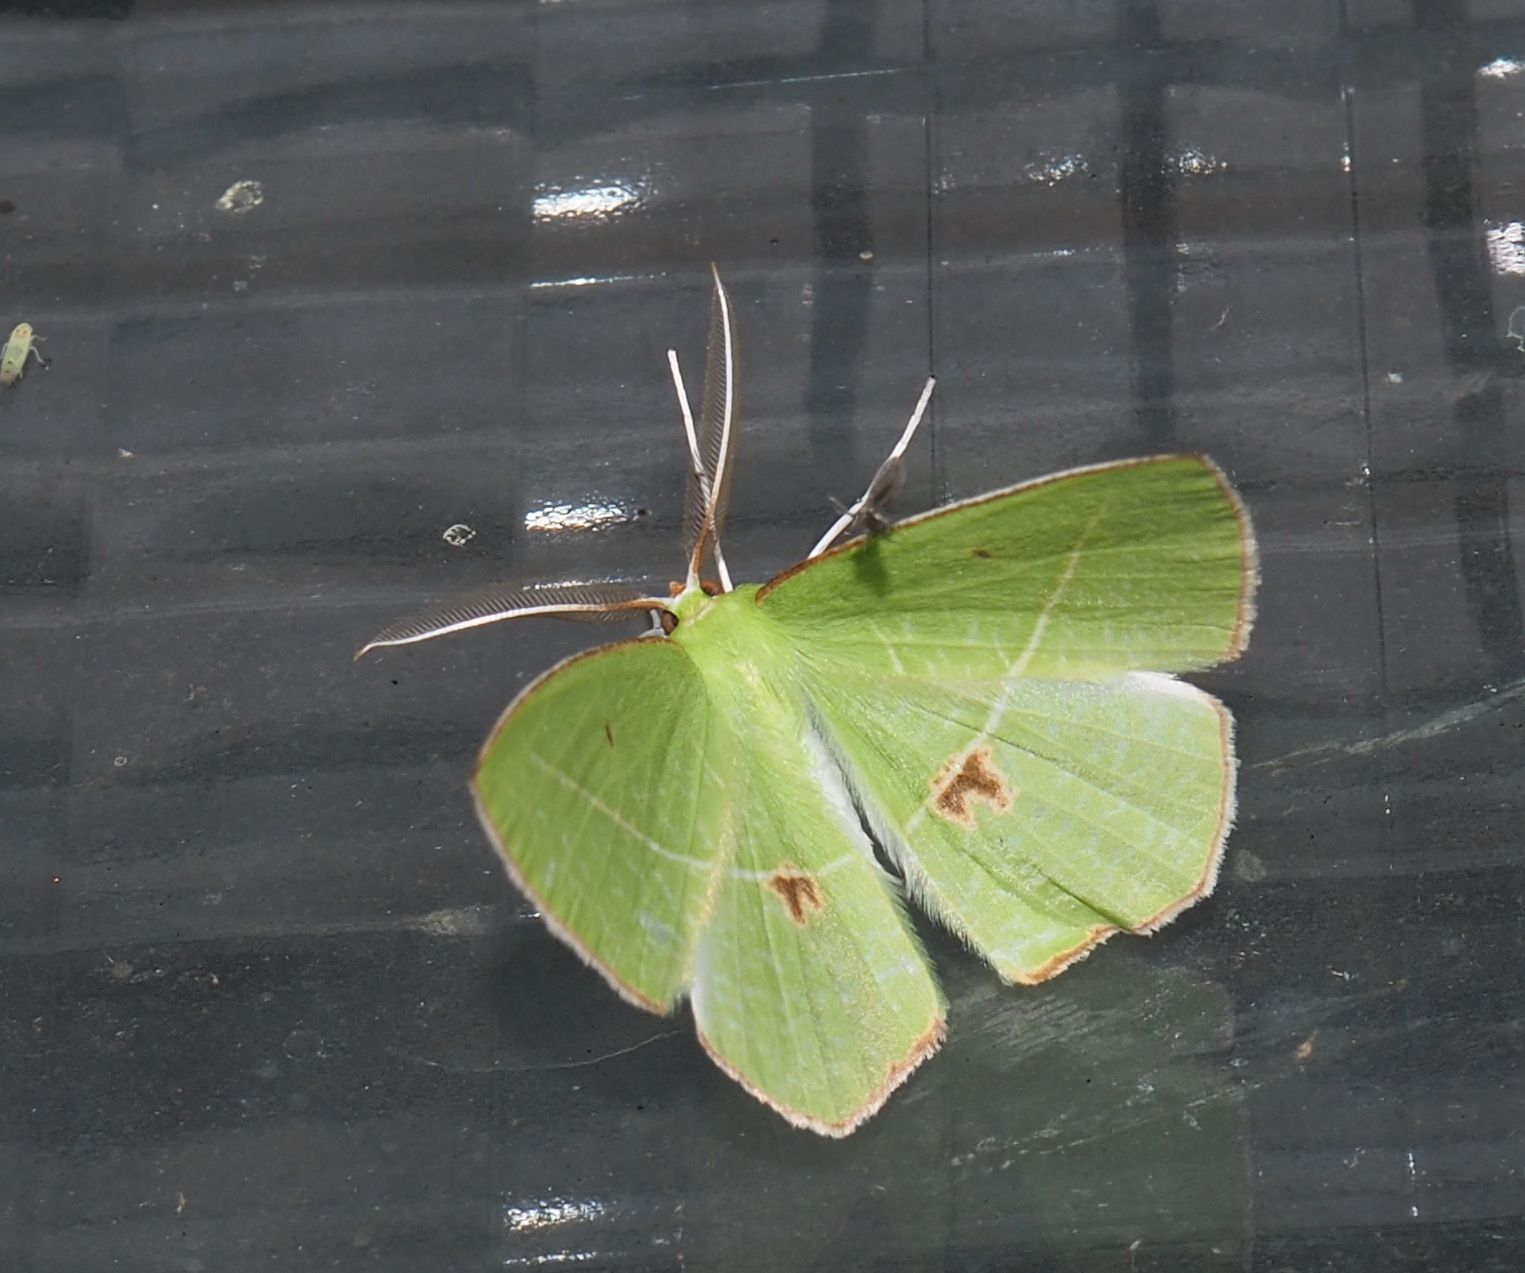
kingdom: Animalia
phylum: Arthropoda
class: Insecta
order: Lepidoptera
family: Geometridae
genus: Tanaoctenia
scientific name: Tanaoctenia haliaria
